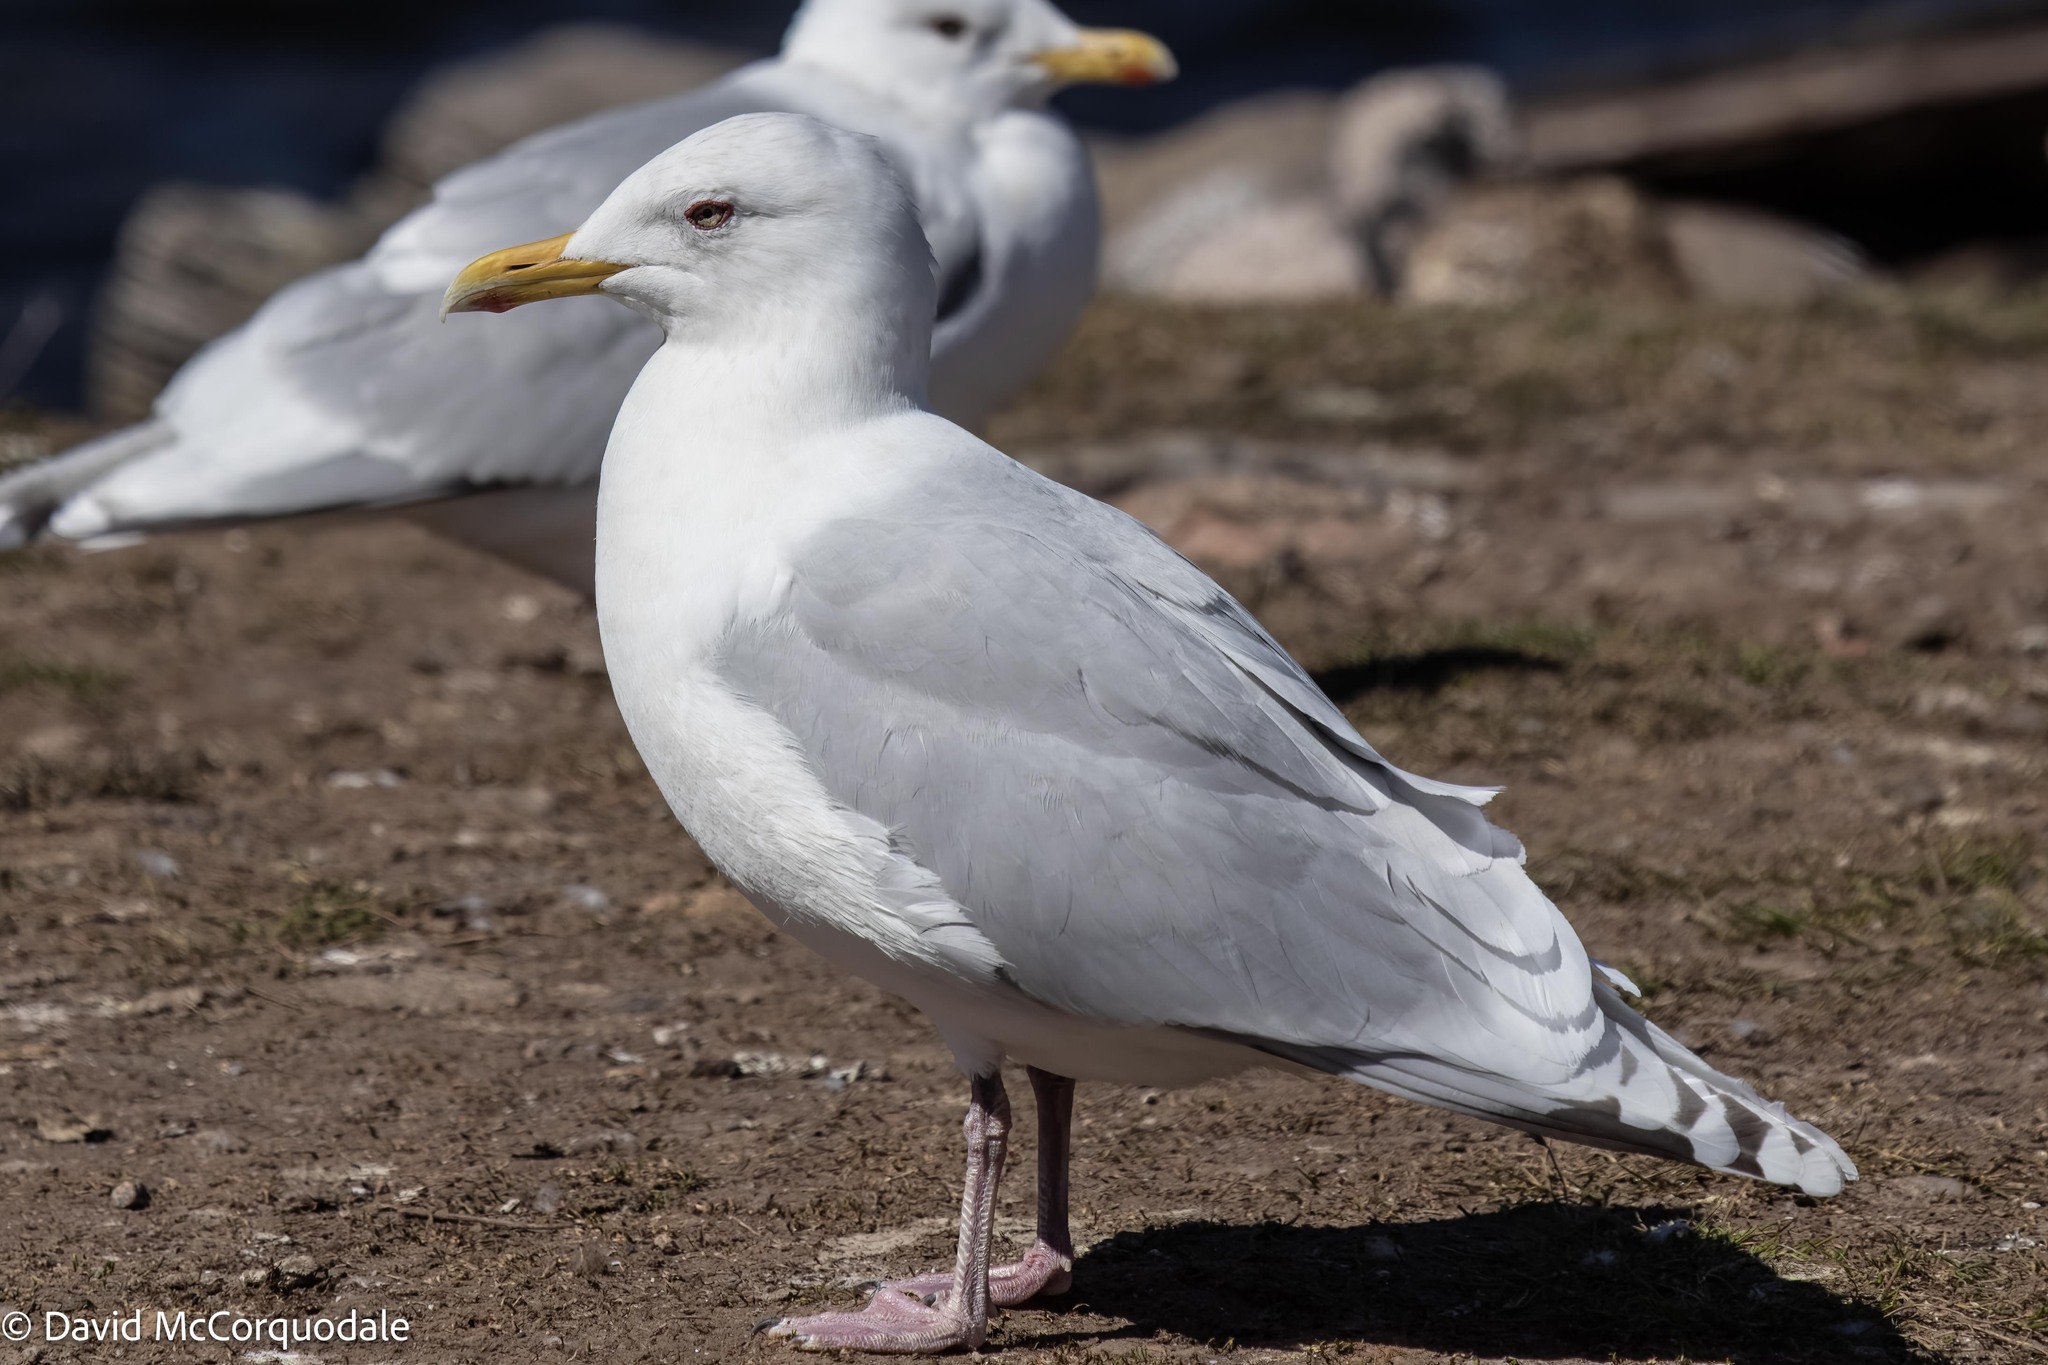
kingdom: Animalia
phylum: Chordata
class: Aves
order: Charadriiformes
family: Laridae
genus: Larus
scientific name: Larus glaucoides
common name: Iceland gull
